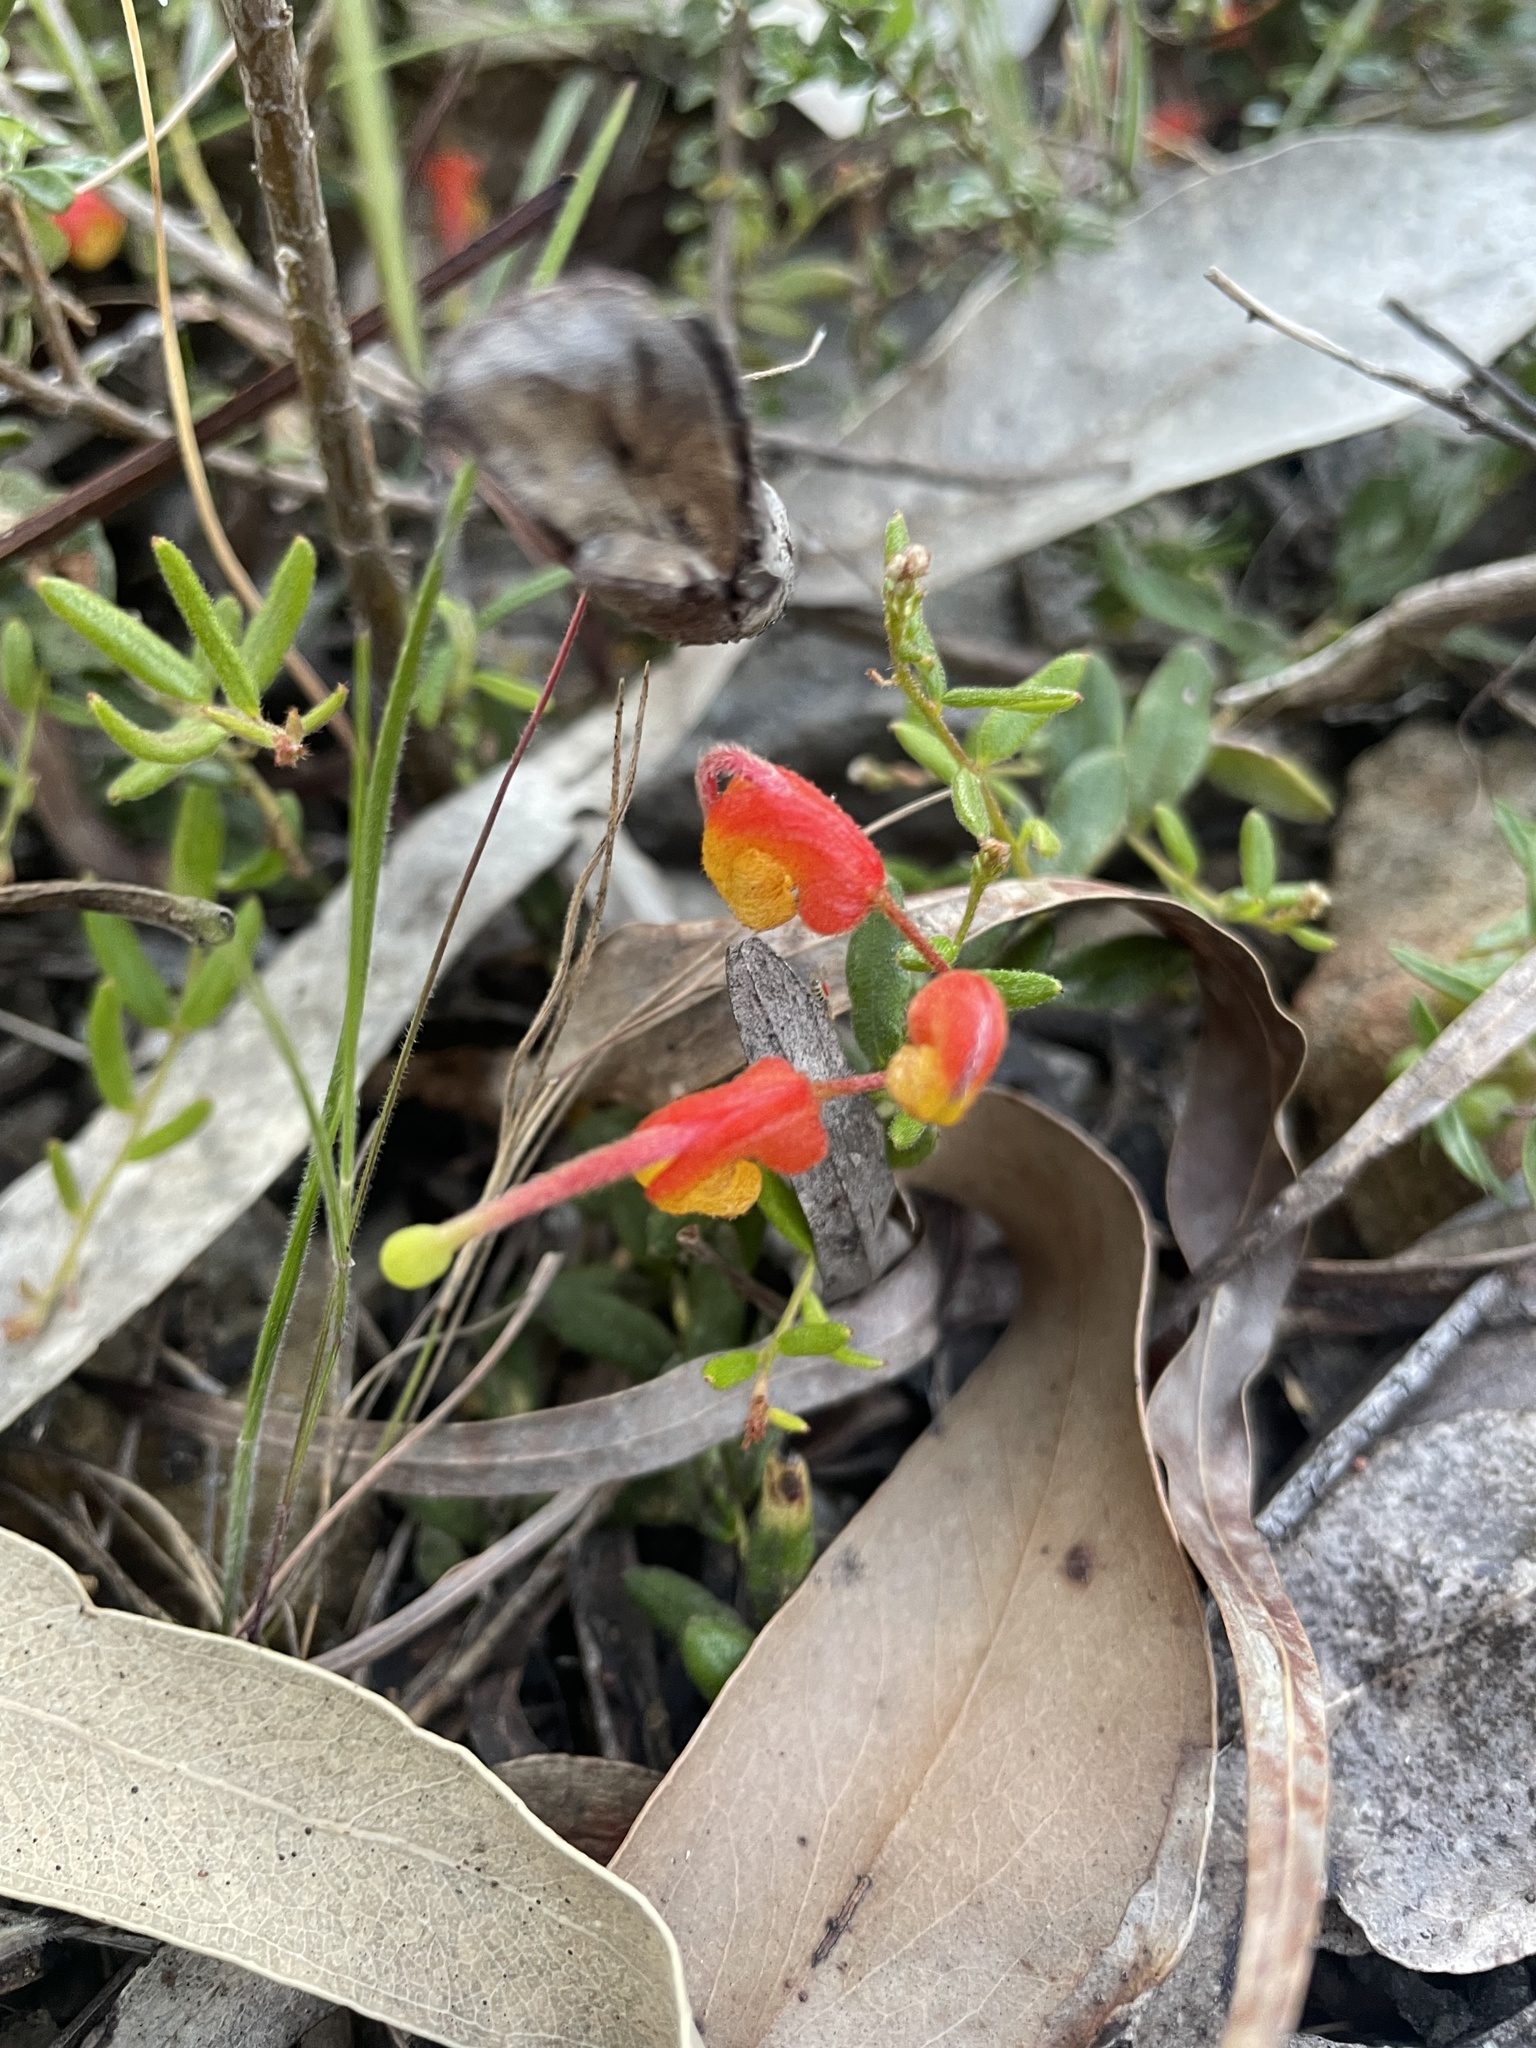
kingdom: Plantae
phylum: Tracheophyta
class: Magnoliopsida
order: Proteales
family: Proteaceae
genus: Grevillea
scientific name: Grevillea alpina
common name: Catclaws grevillea
